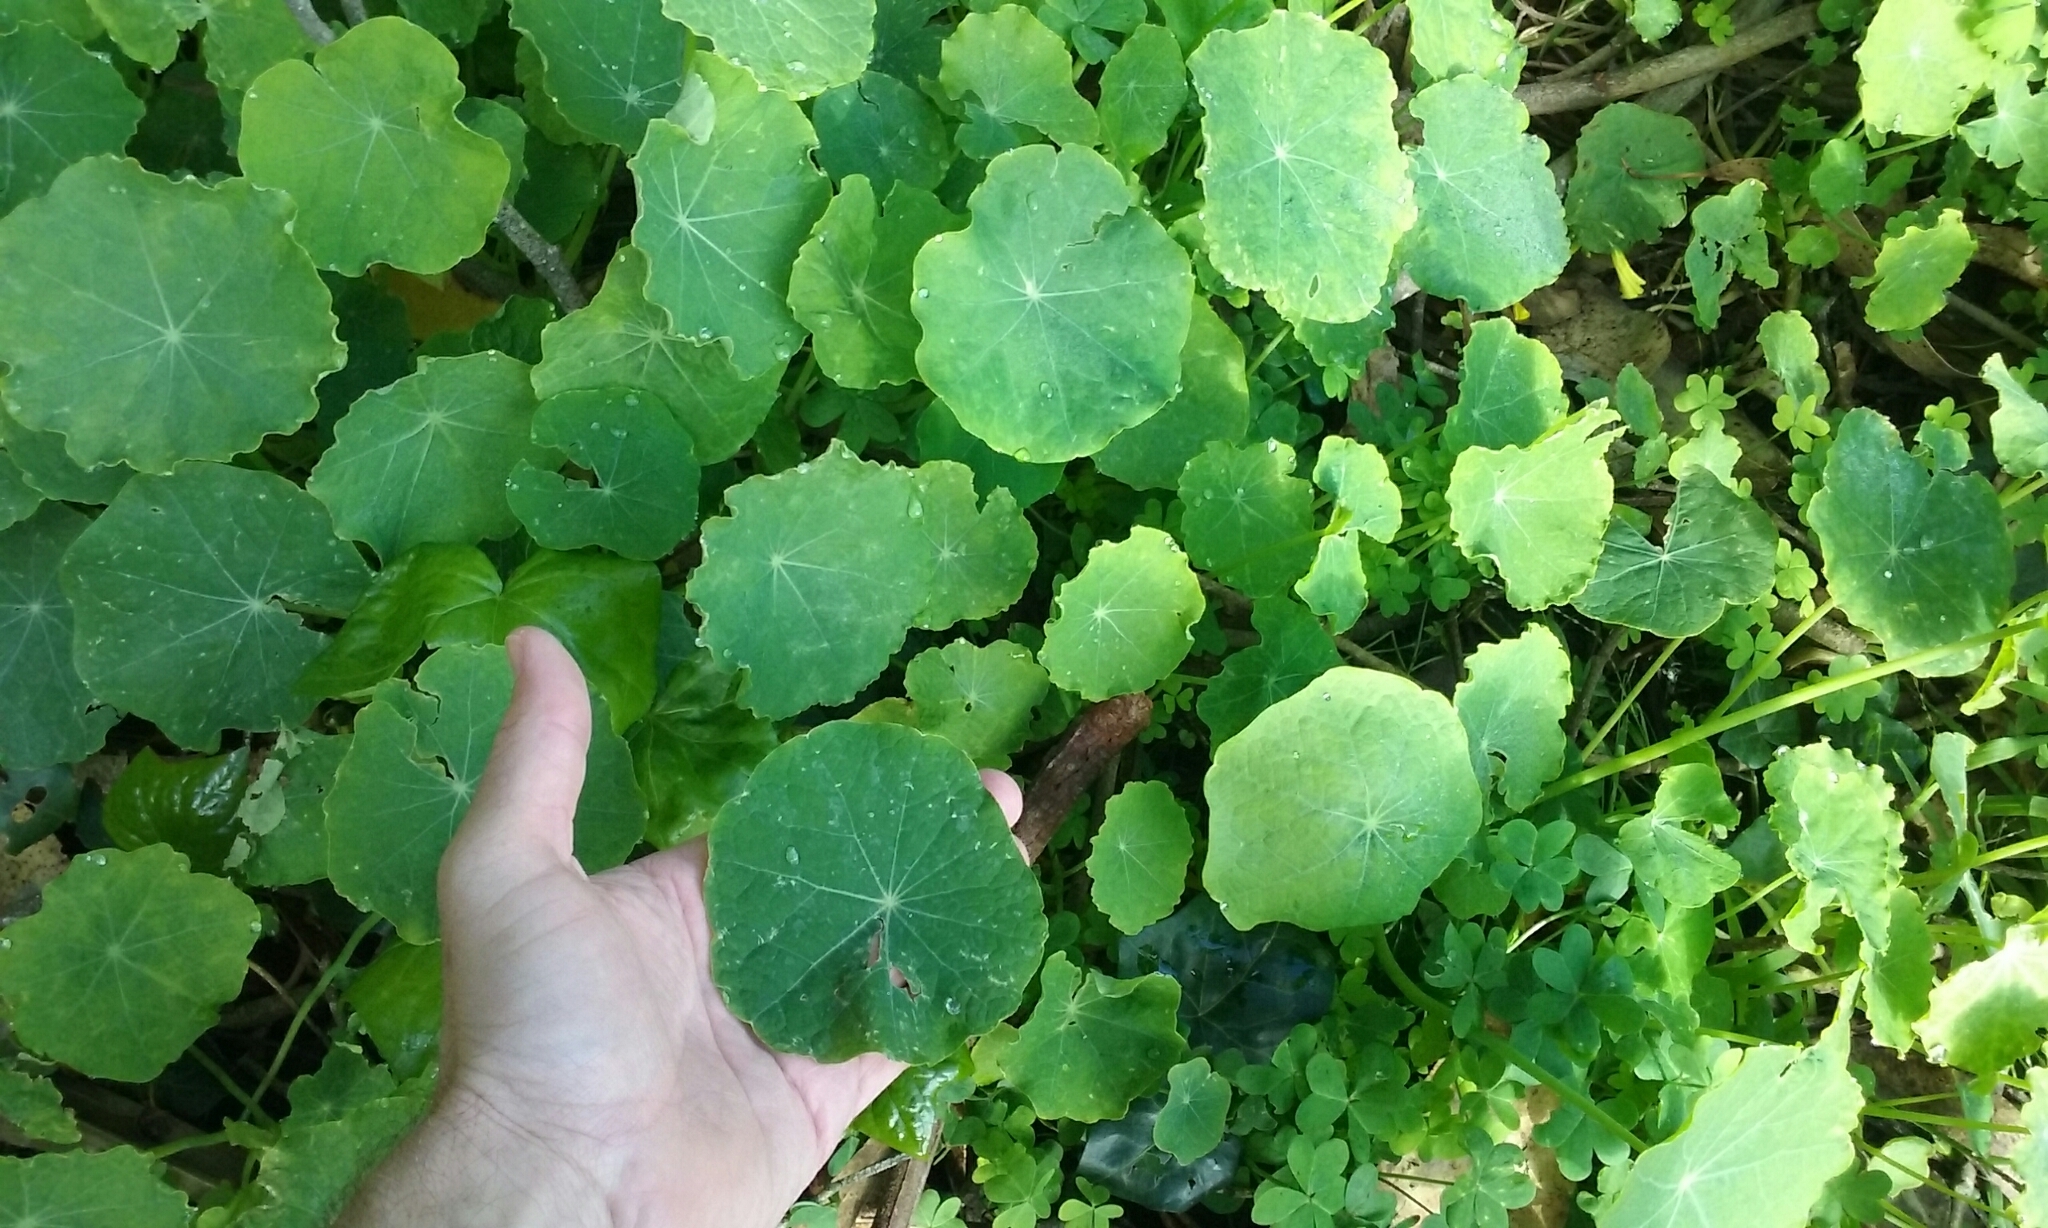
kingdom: Plantae
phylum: Tracheophyta
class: Magnoliopsida
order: Brassicales
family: Tropaeolaceae
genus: Tropaeolum
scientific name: Tropaeolum majus
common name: Nasturtium
